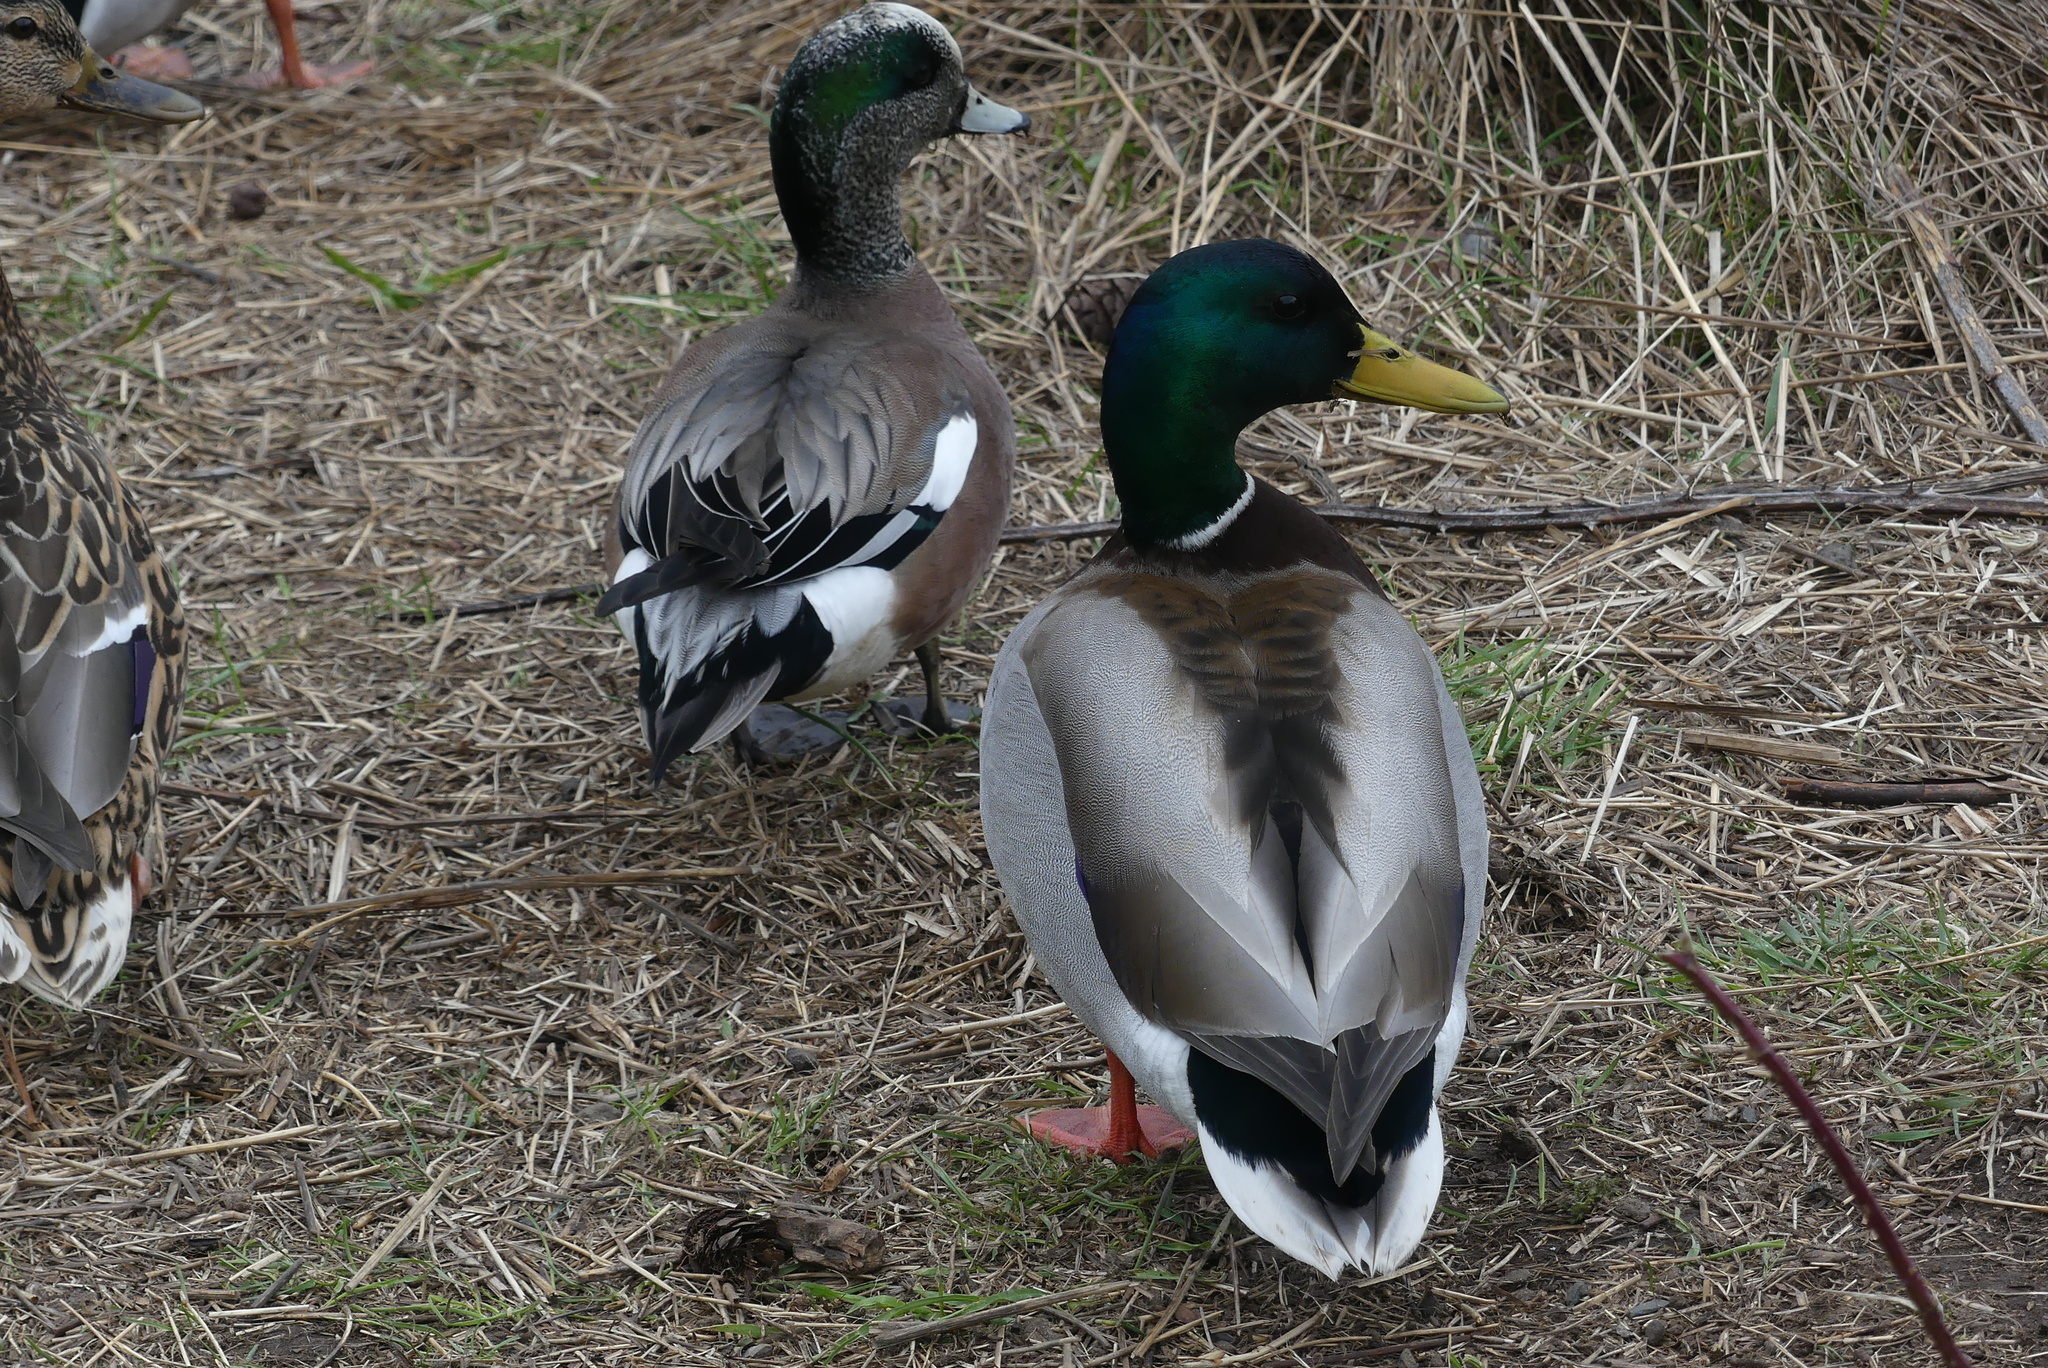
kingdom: Animalia
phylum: Chordata
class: Aves
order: Anseriformes
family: Anatidae
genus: Anas
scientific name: Anas platyrhynchos
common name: Mallard
